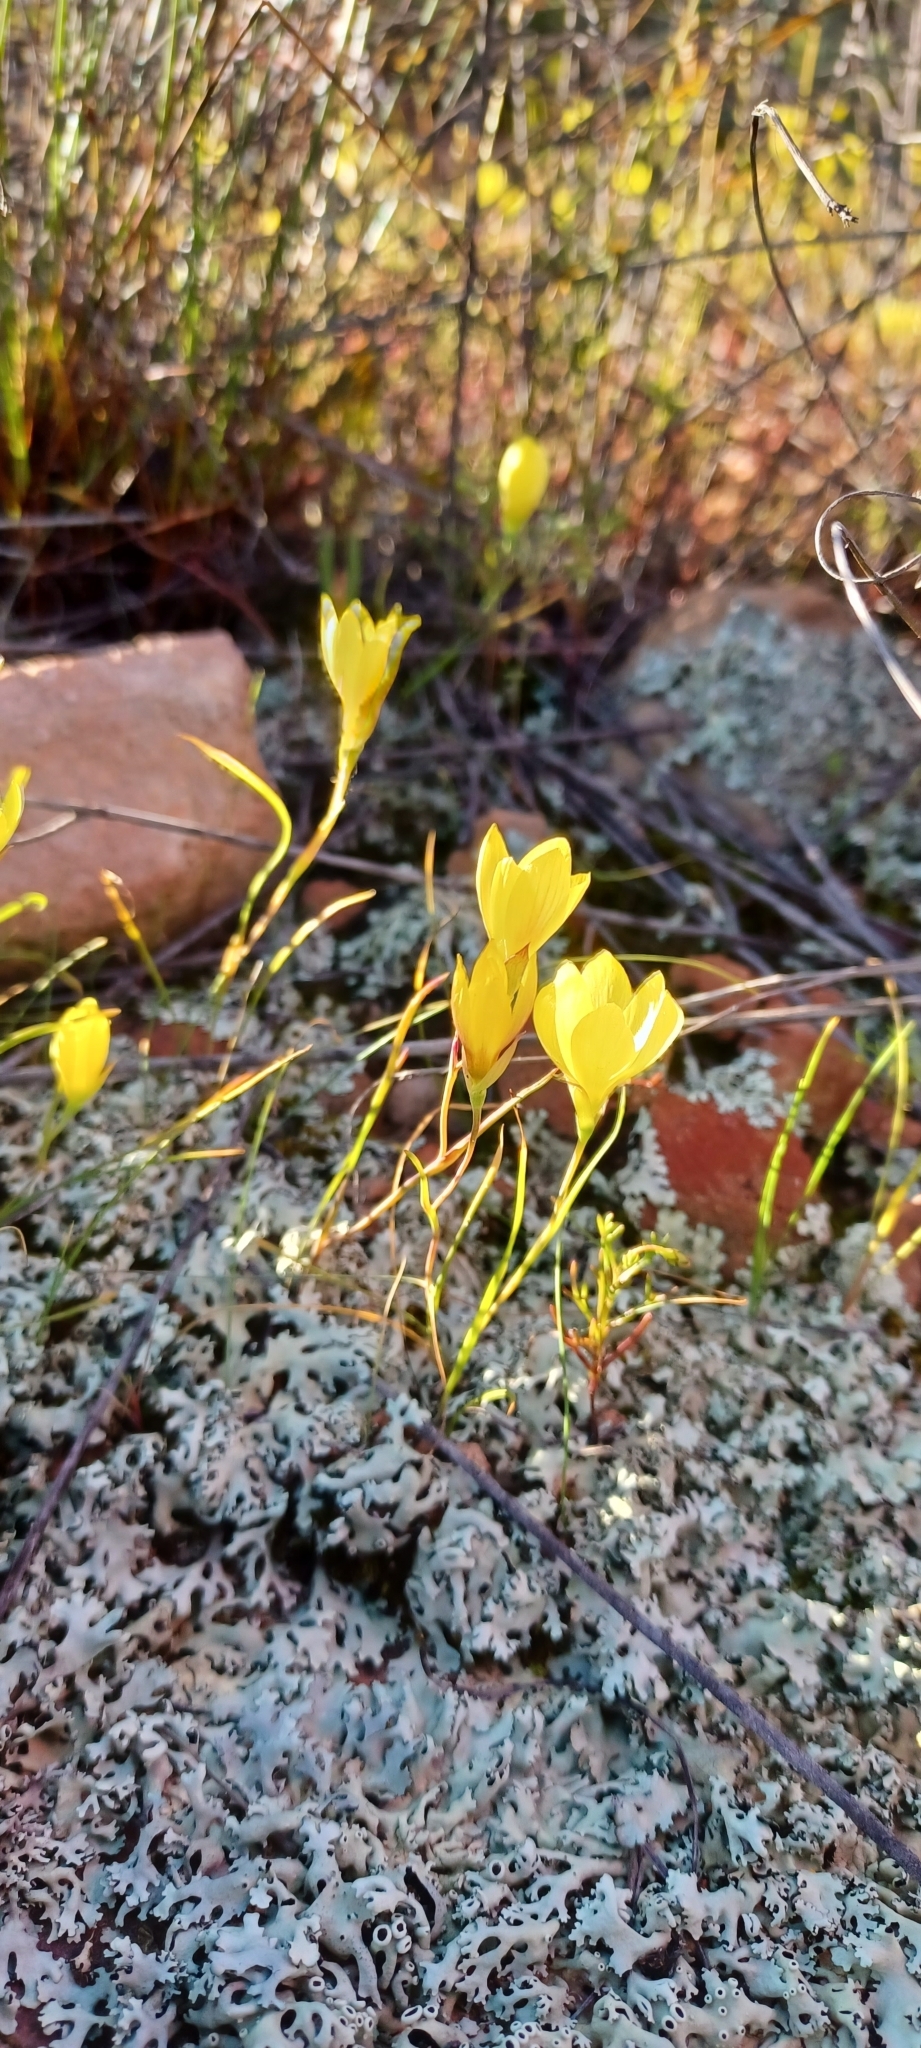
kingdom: Plantae
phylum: Tracheophyta
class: Liliopsida
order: Asparagales
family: Iridaceae
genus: Geissorhiza
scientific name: Geissorhiza ornithogaloides
